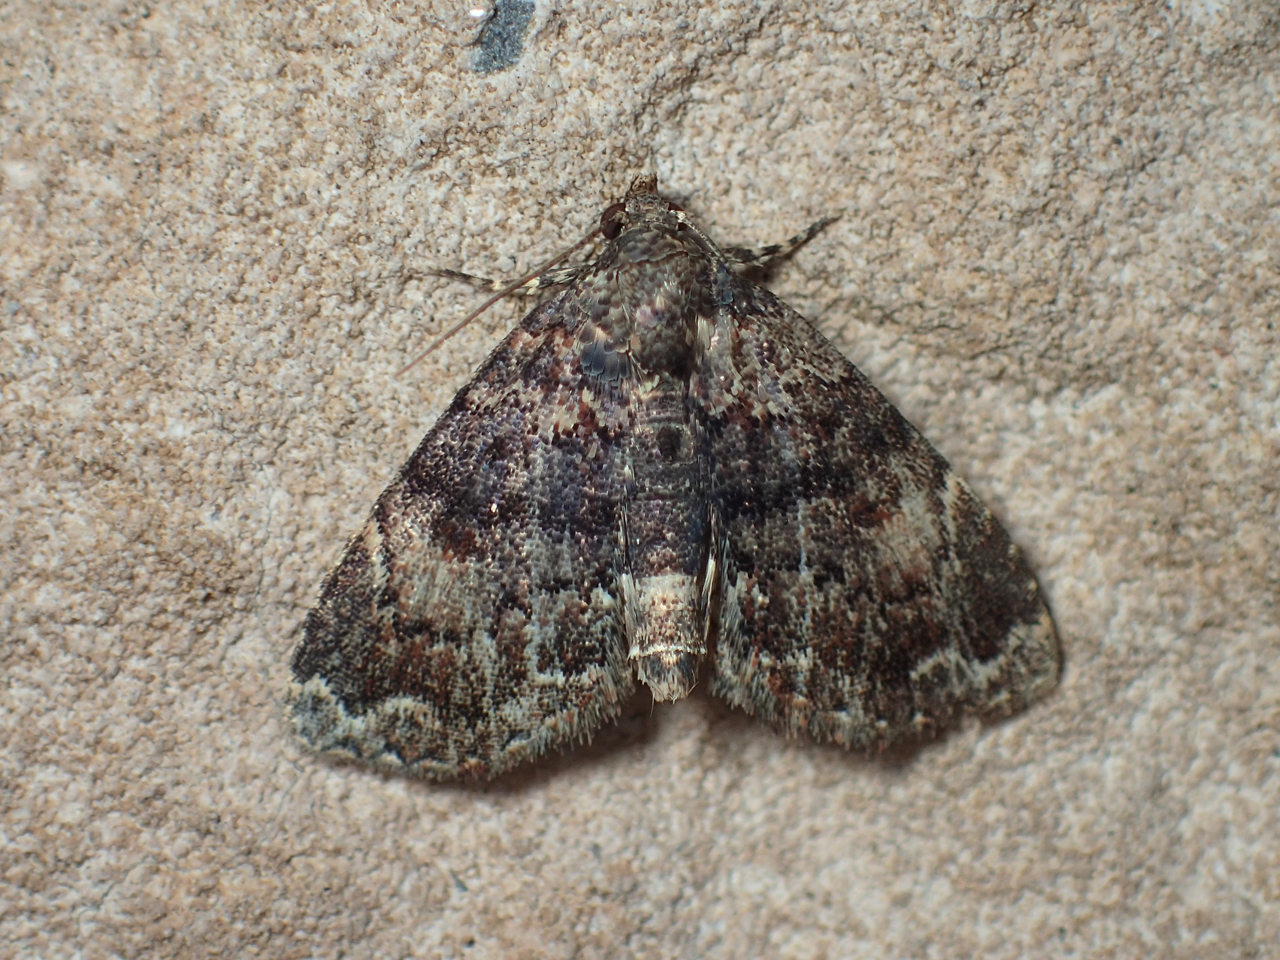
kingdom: Animalia
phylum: Arthropoda
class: Insecta
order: Lepidoptera
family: Erebidae
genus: Metalectra
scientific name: Metalectra richardsi
